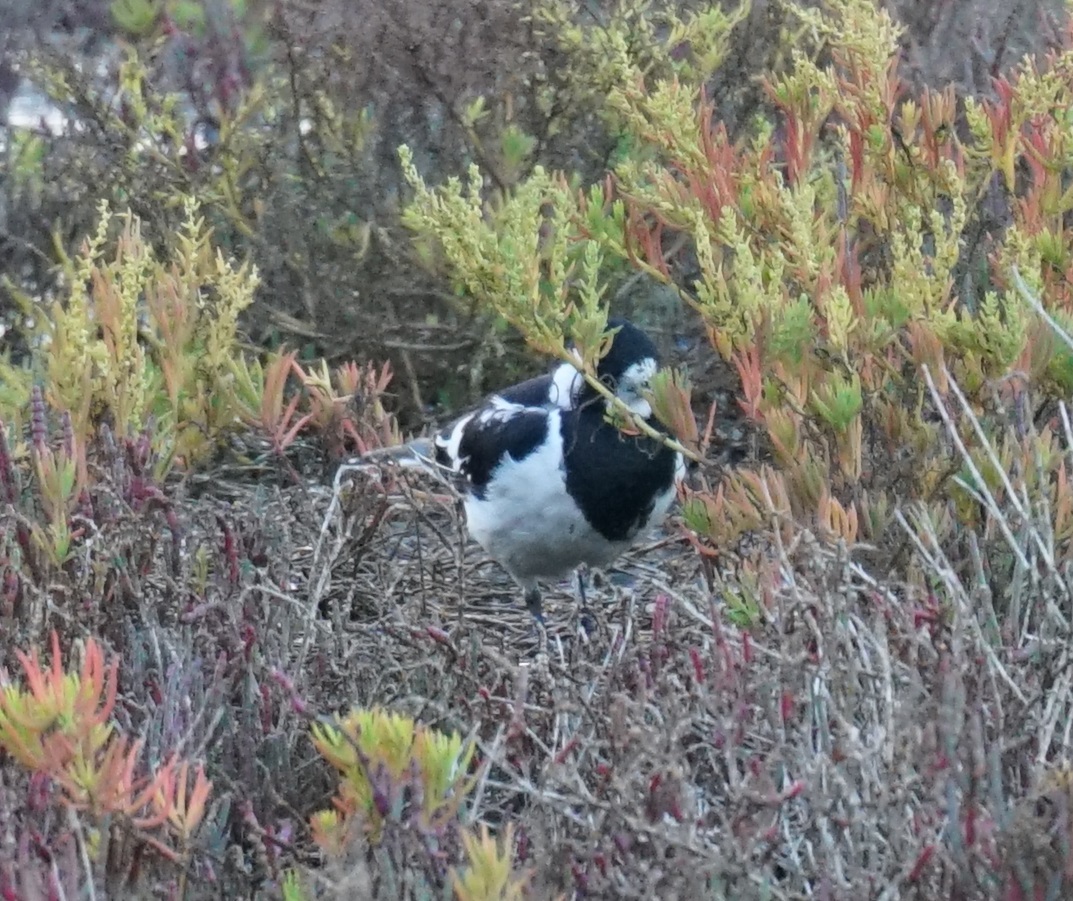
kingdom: Animalia
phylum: Chordata
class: Aves
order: Passeriformes
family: Monarchidae
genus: Grallina
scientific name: Grallina cyanoleuca
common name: Magpie-lark
